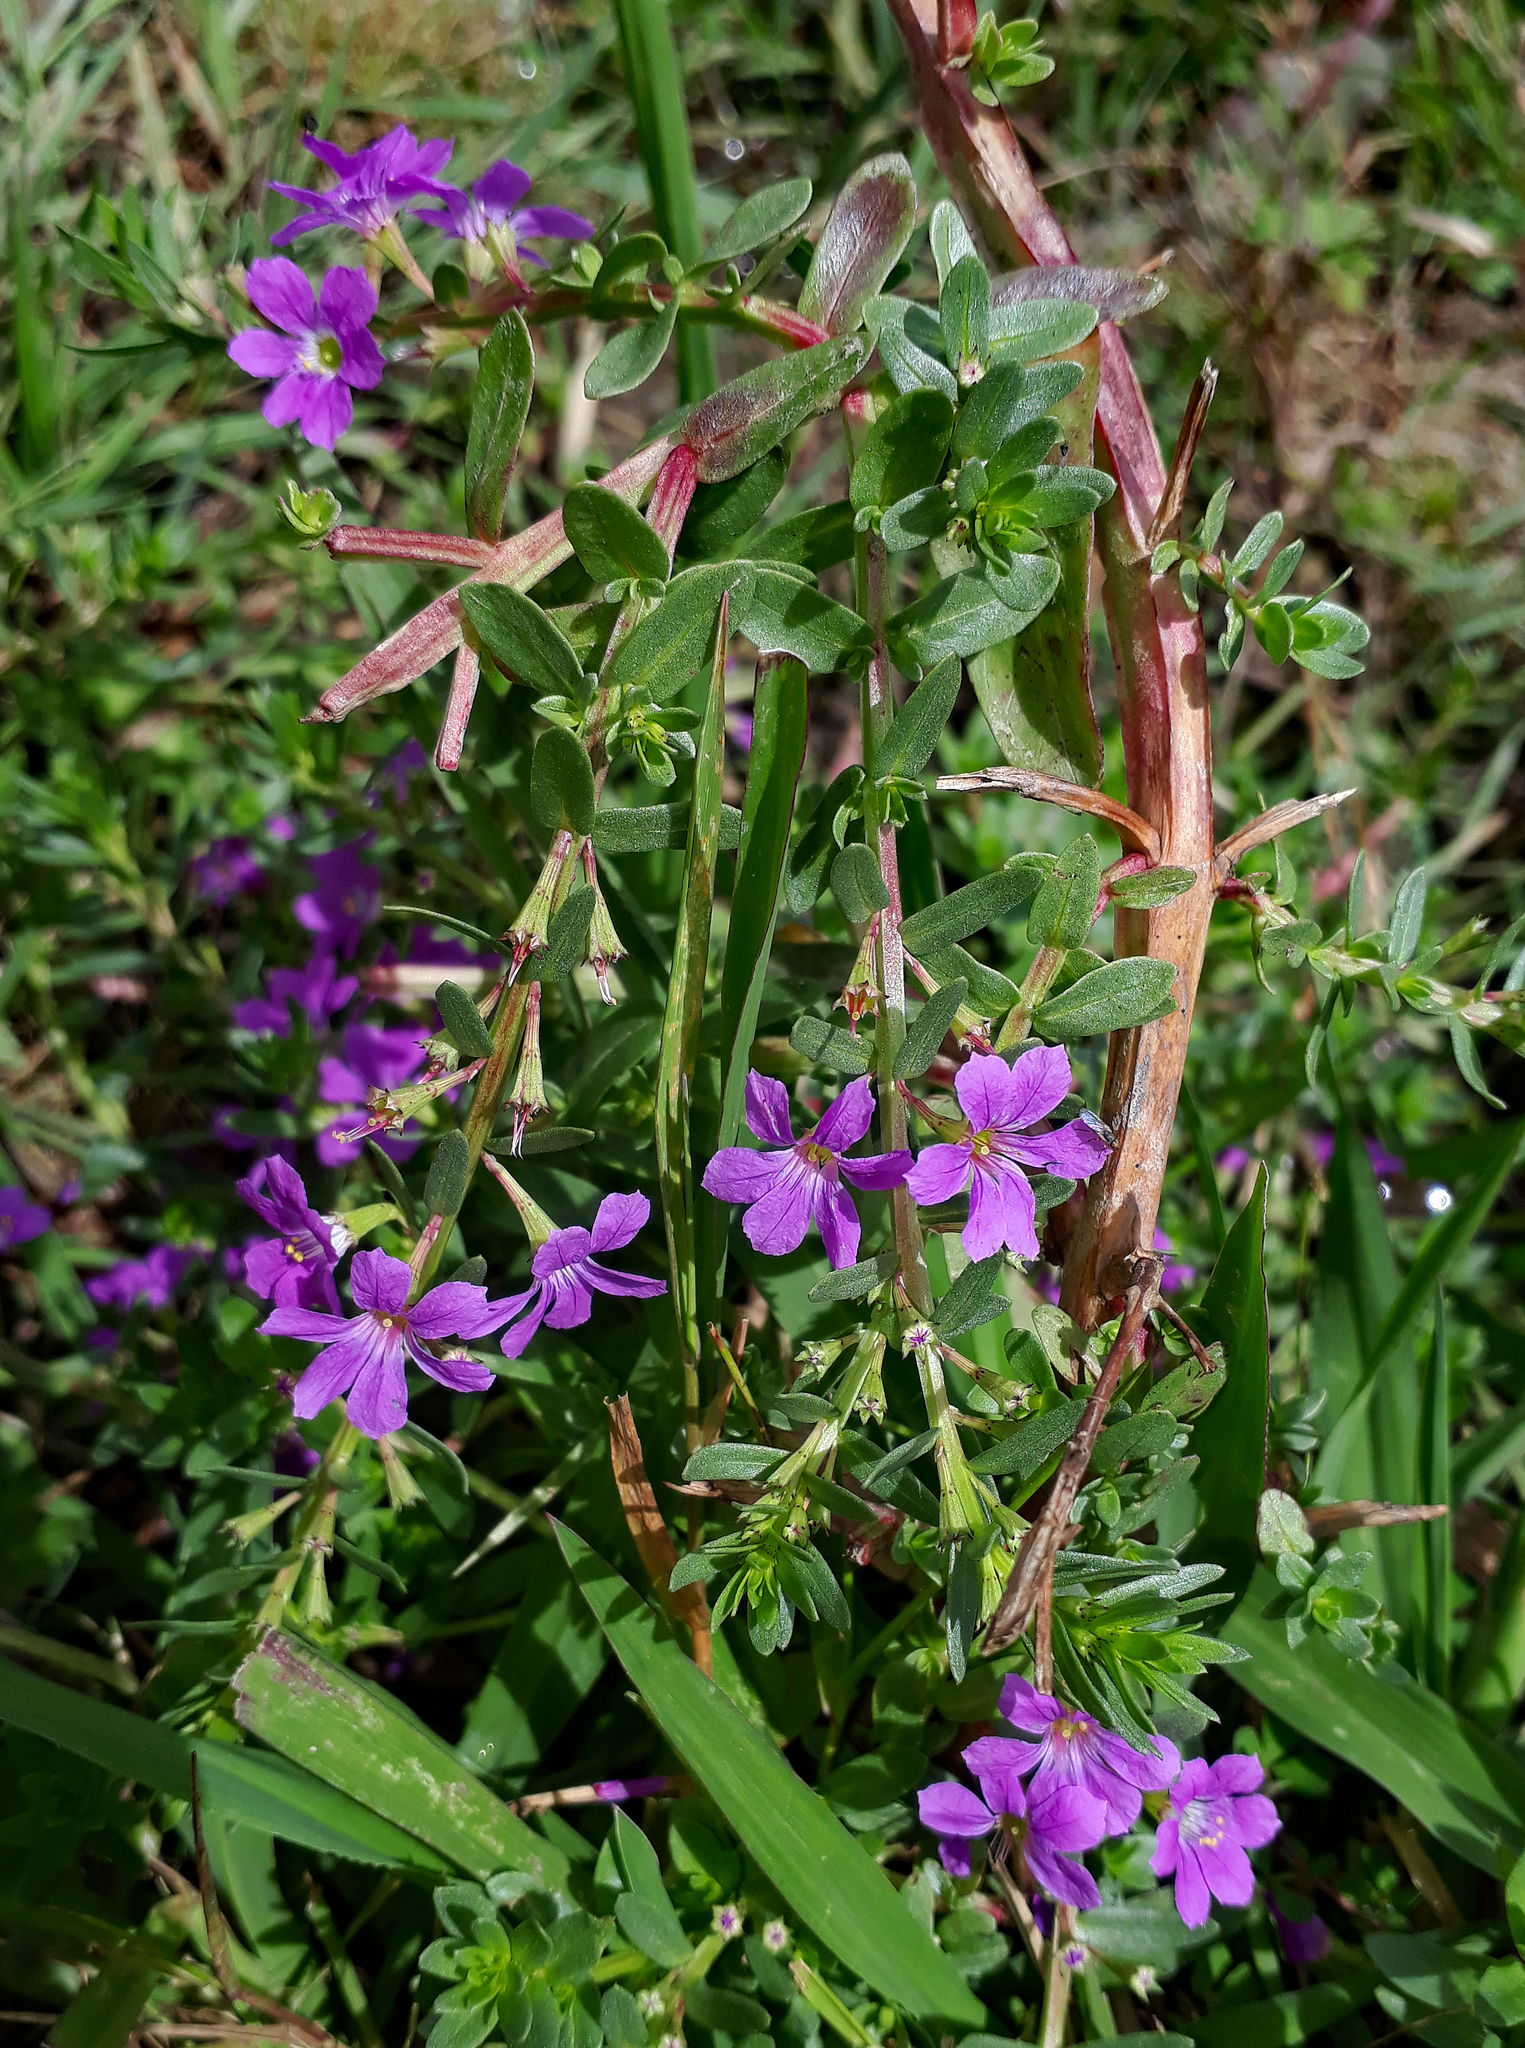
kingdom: Plantae
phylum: Tracheophyta
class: Magnoliopsida
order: Myrtales
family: Lythraceae
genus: Lythrum
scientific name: Lythrum junceum
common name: False grass-poly
